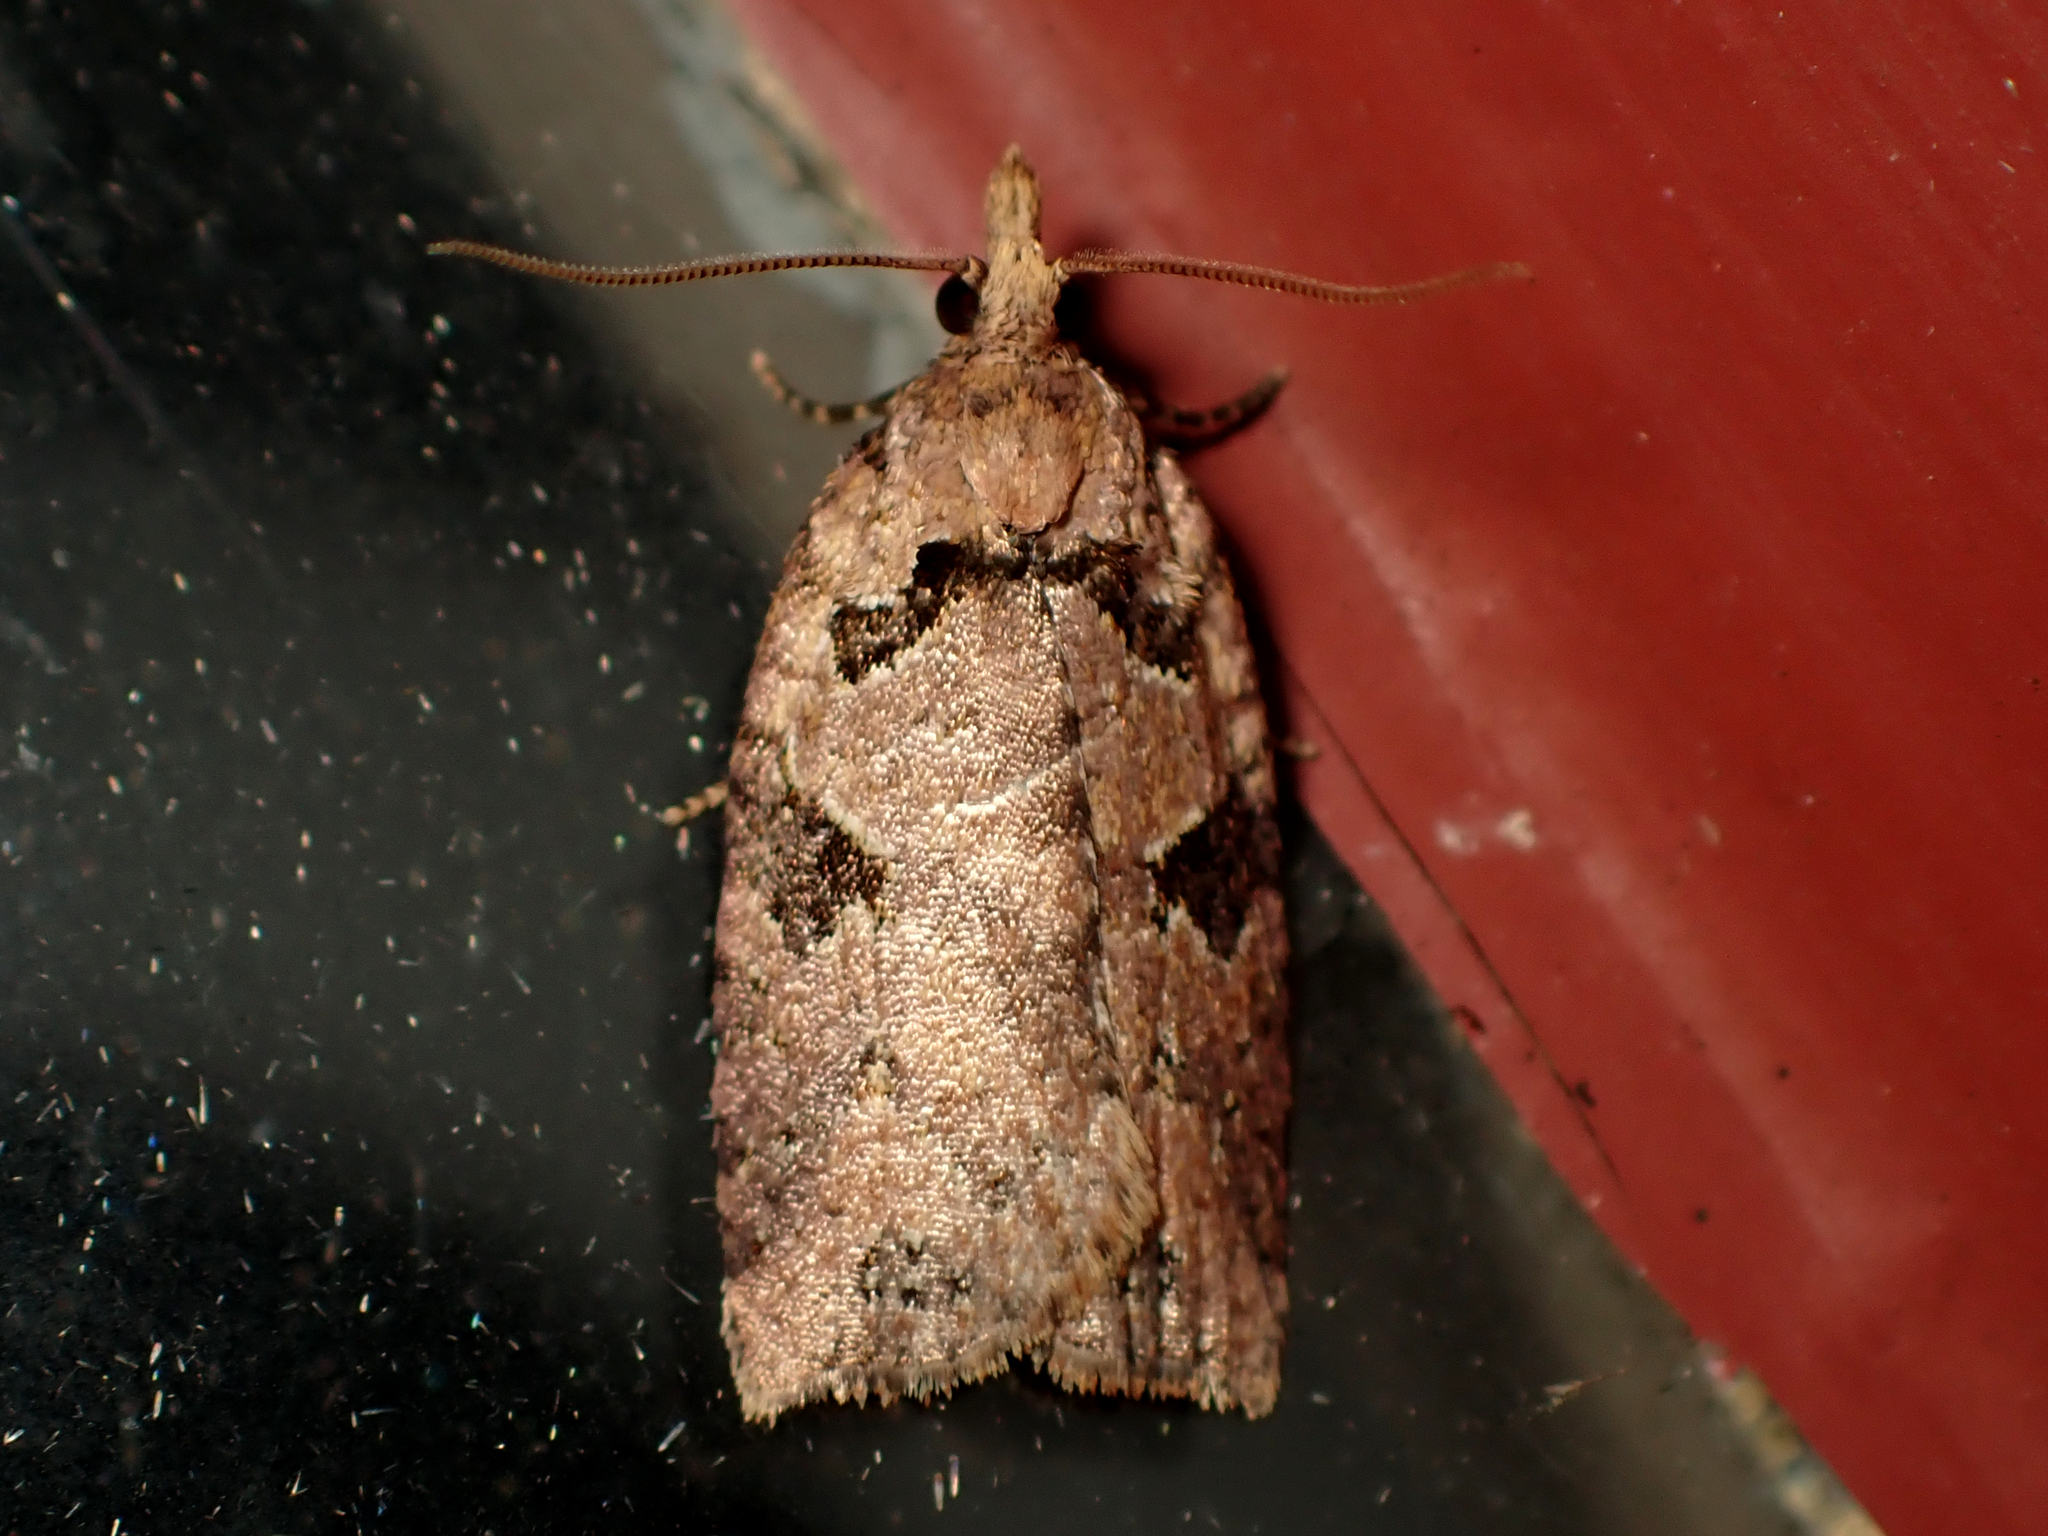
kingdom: Animalia
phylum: Arthropoda
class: Insecta
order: Lepidoptera
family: Tortricidae
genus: Ctenopseustis
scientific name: Ctenopseustis obliquana
